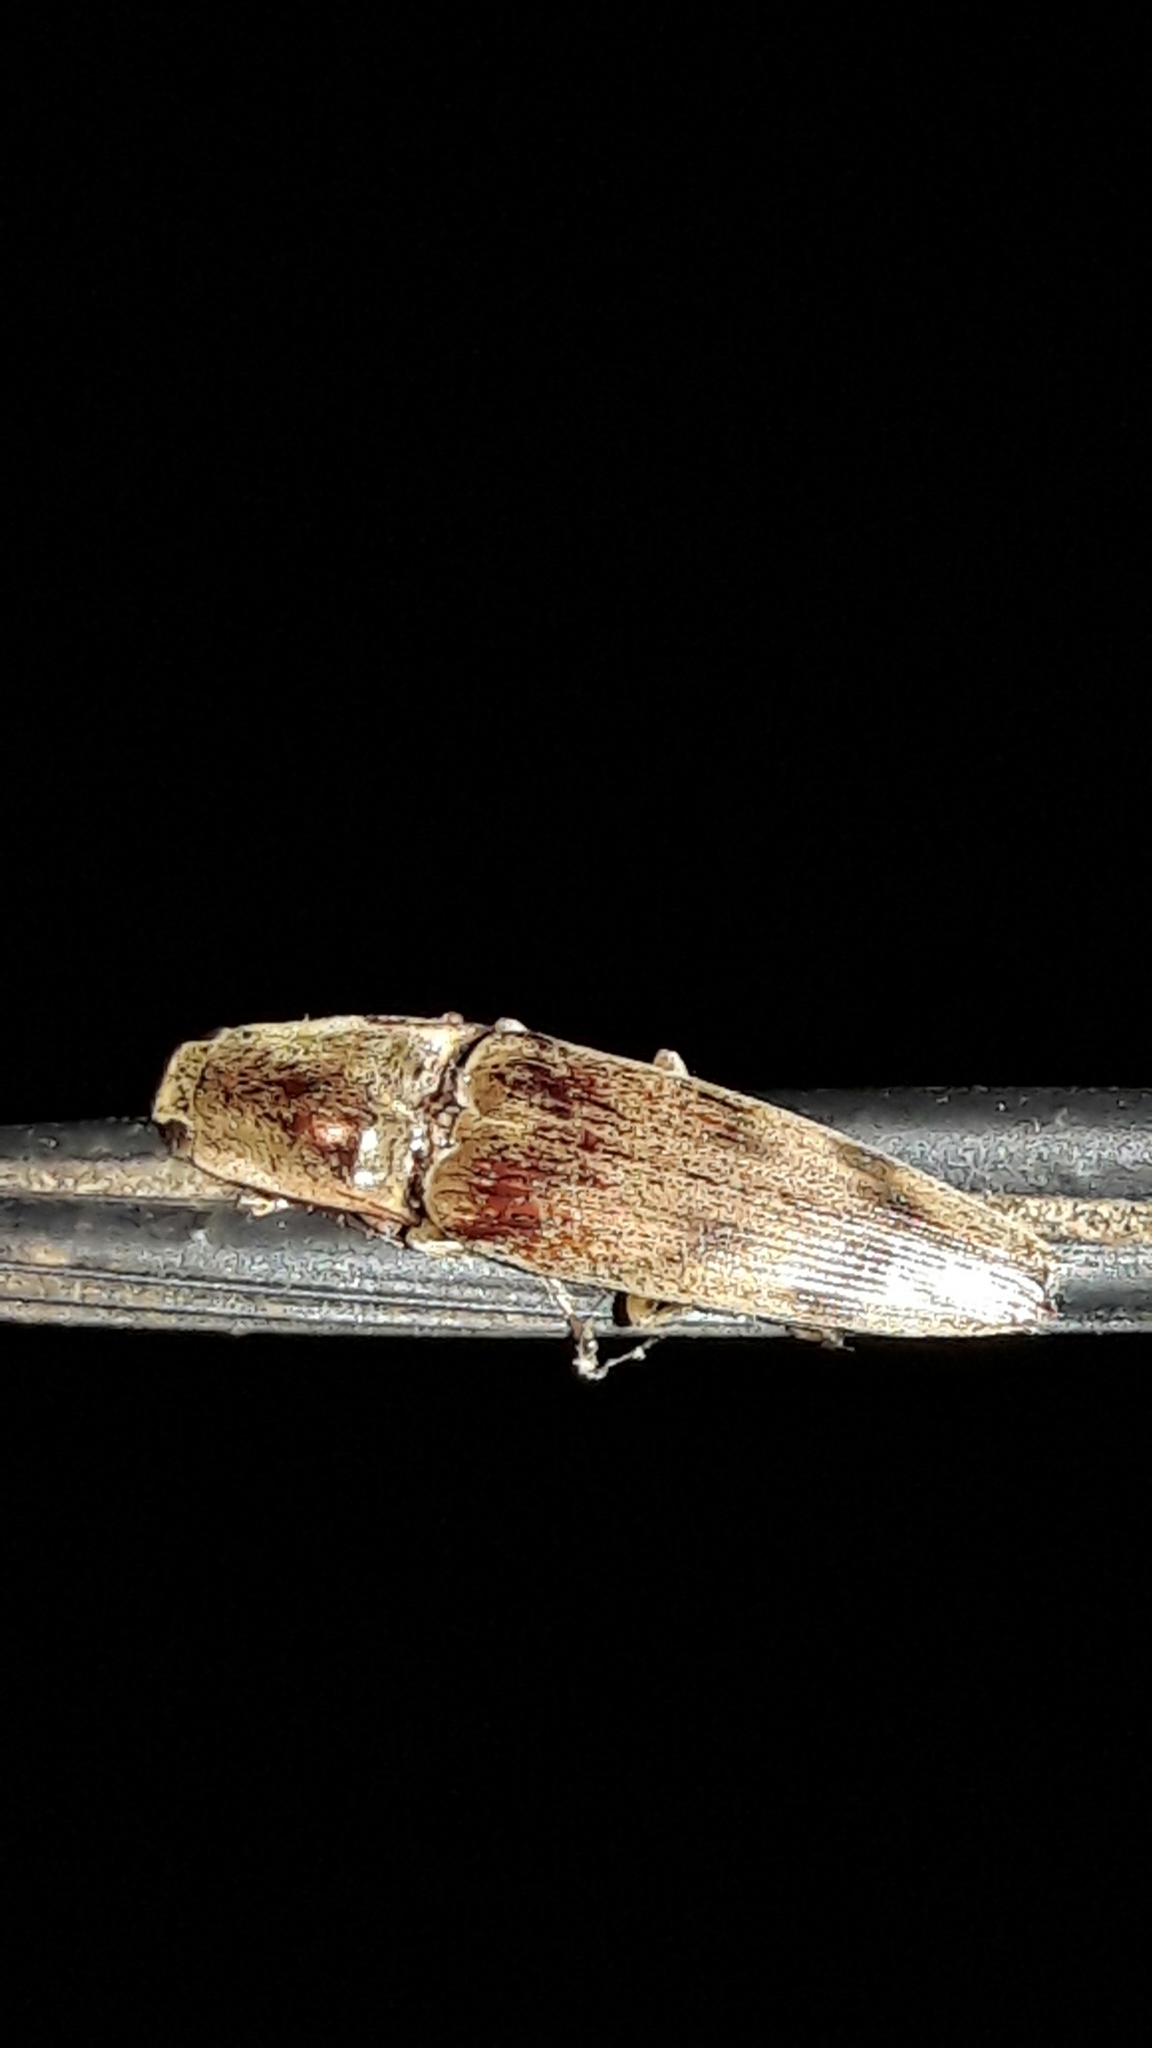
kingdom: Animalia
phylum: Arthropoda
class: Insecta
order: Coleoptera
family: Elateridae
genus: Monocrepidius
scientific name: Monocrepidius
